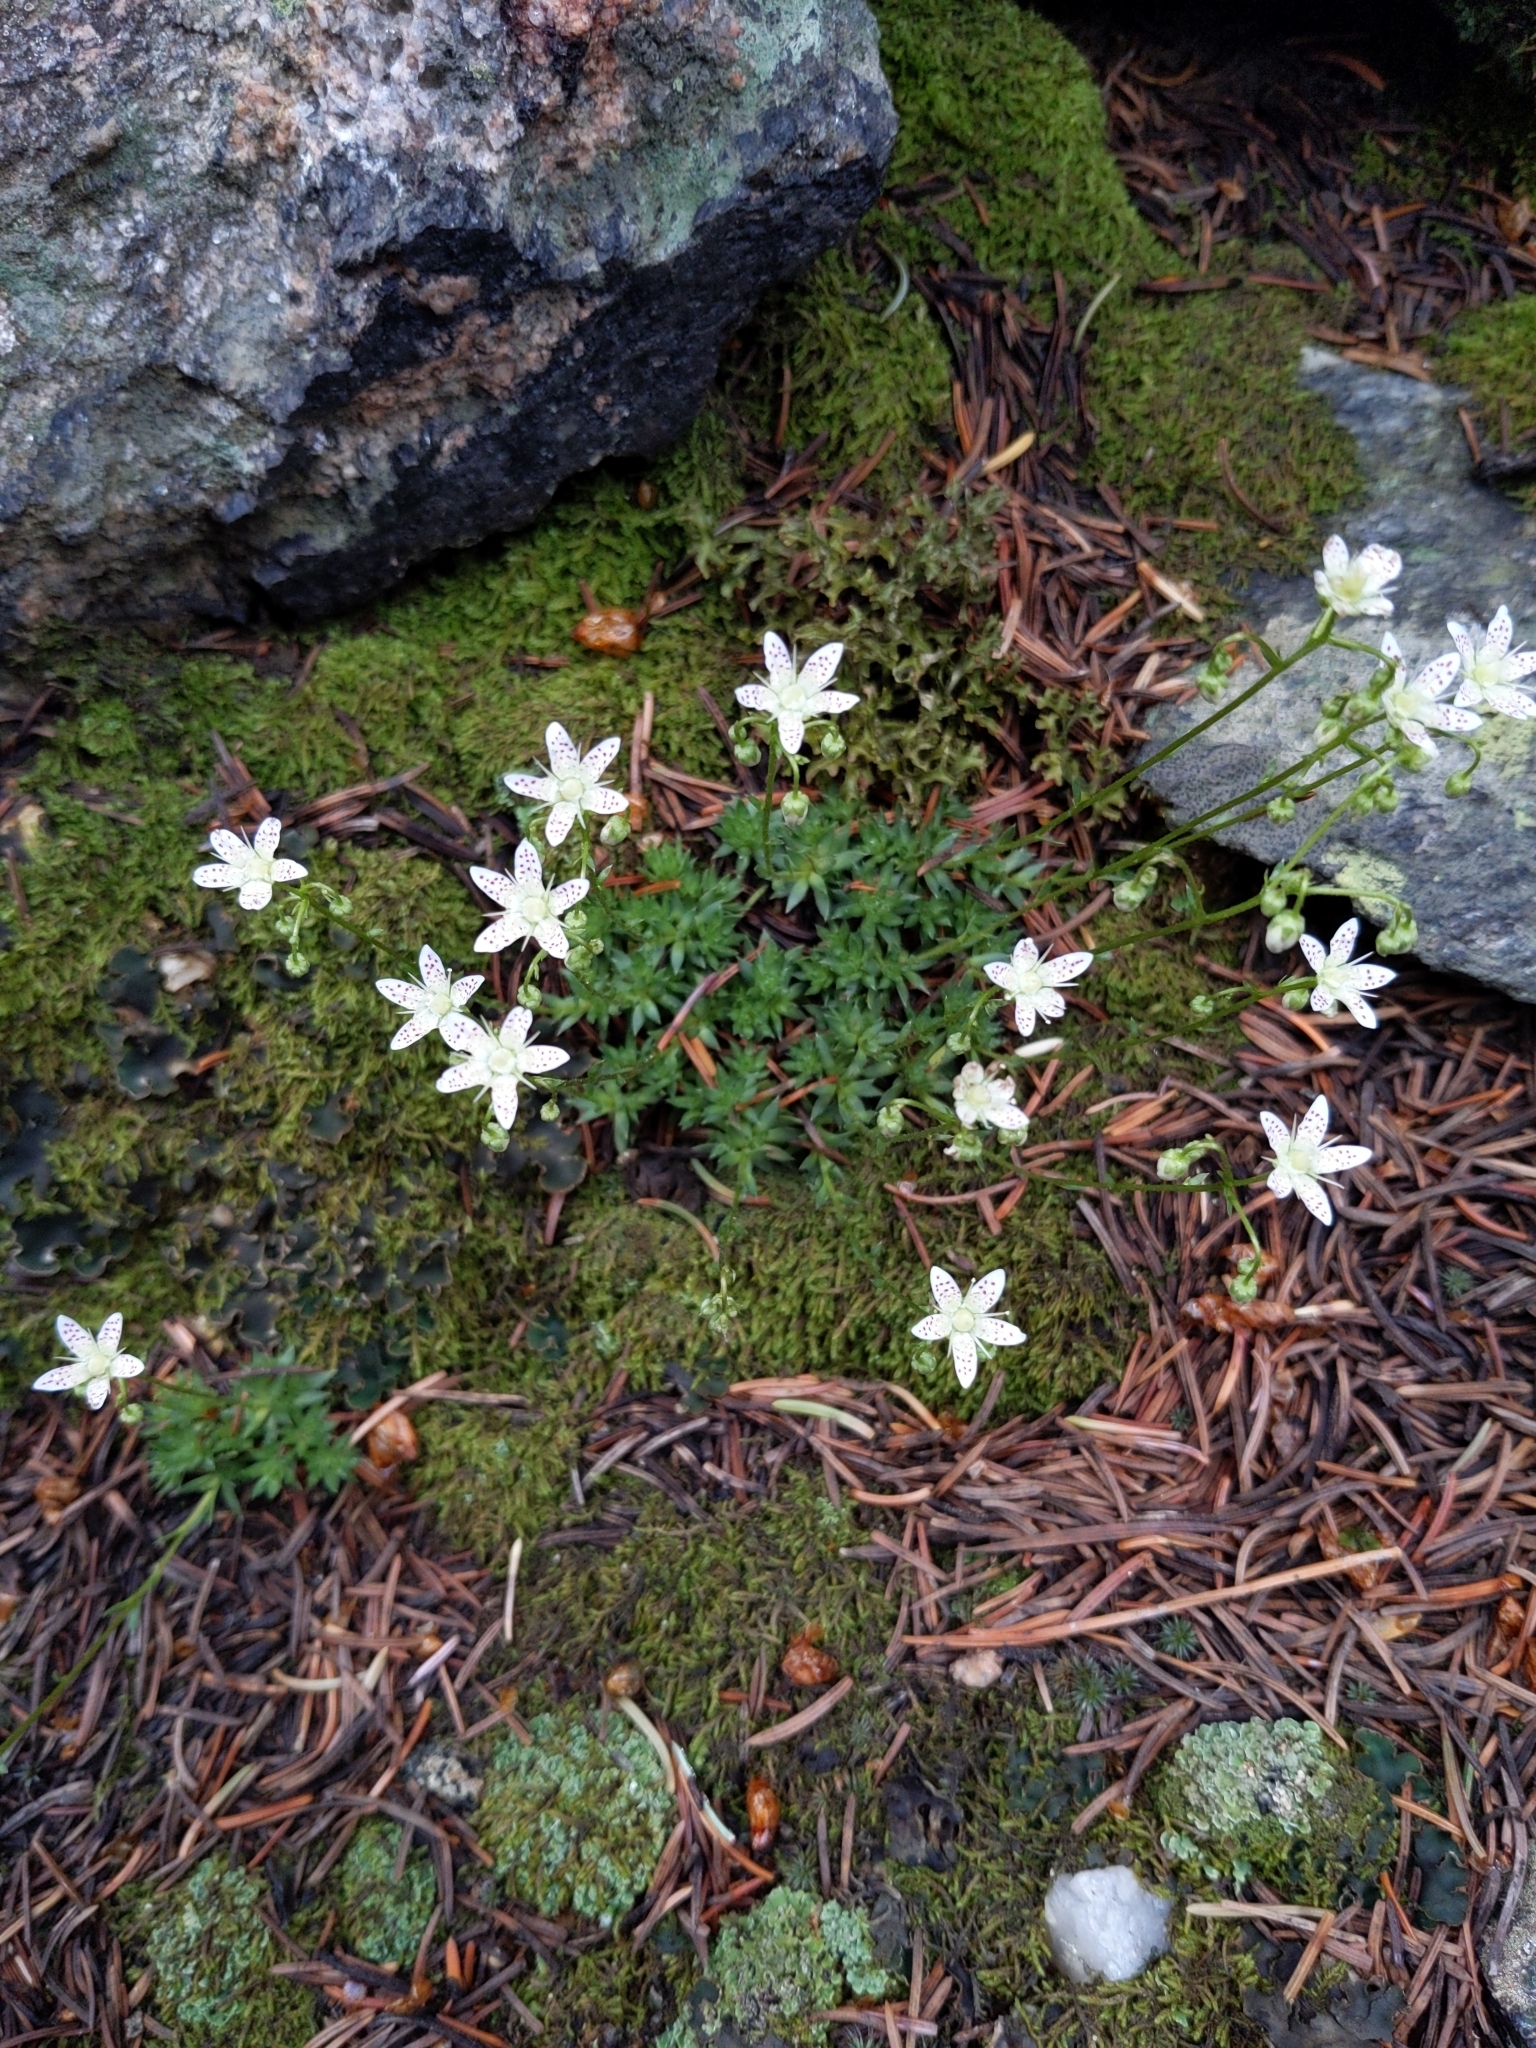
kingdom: Plantae
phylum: Tracheophyta
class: Magnoliopsida
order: Saxifragales
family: Saxifragaceae
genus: Saxifraga
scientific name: Saxifraga bronchialis
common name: Matted saxifrage
